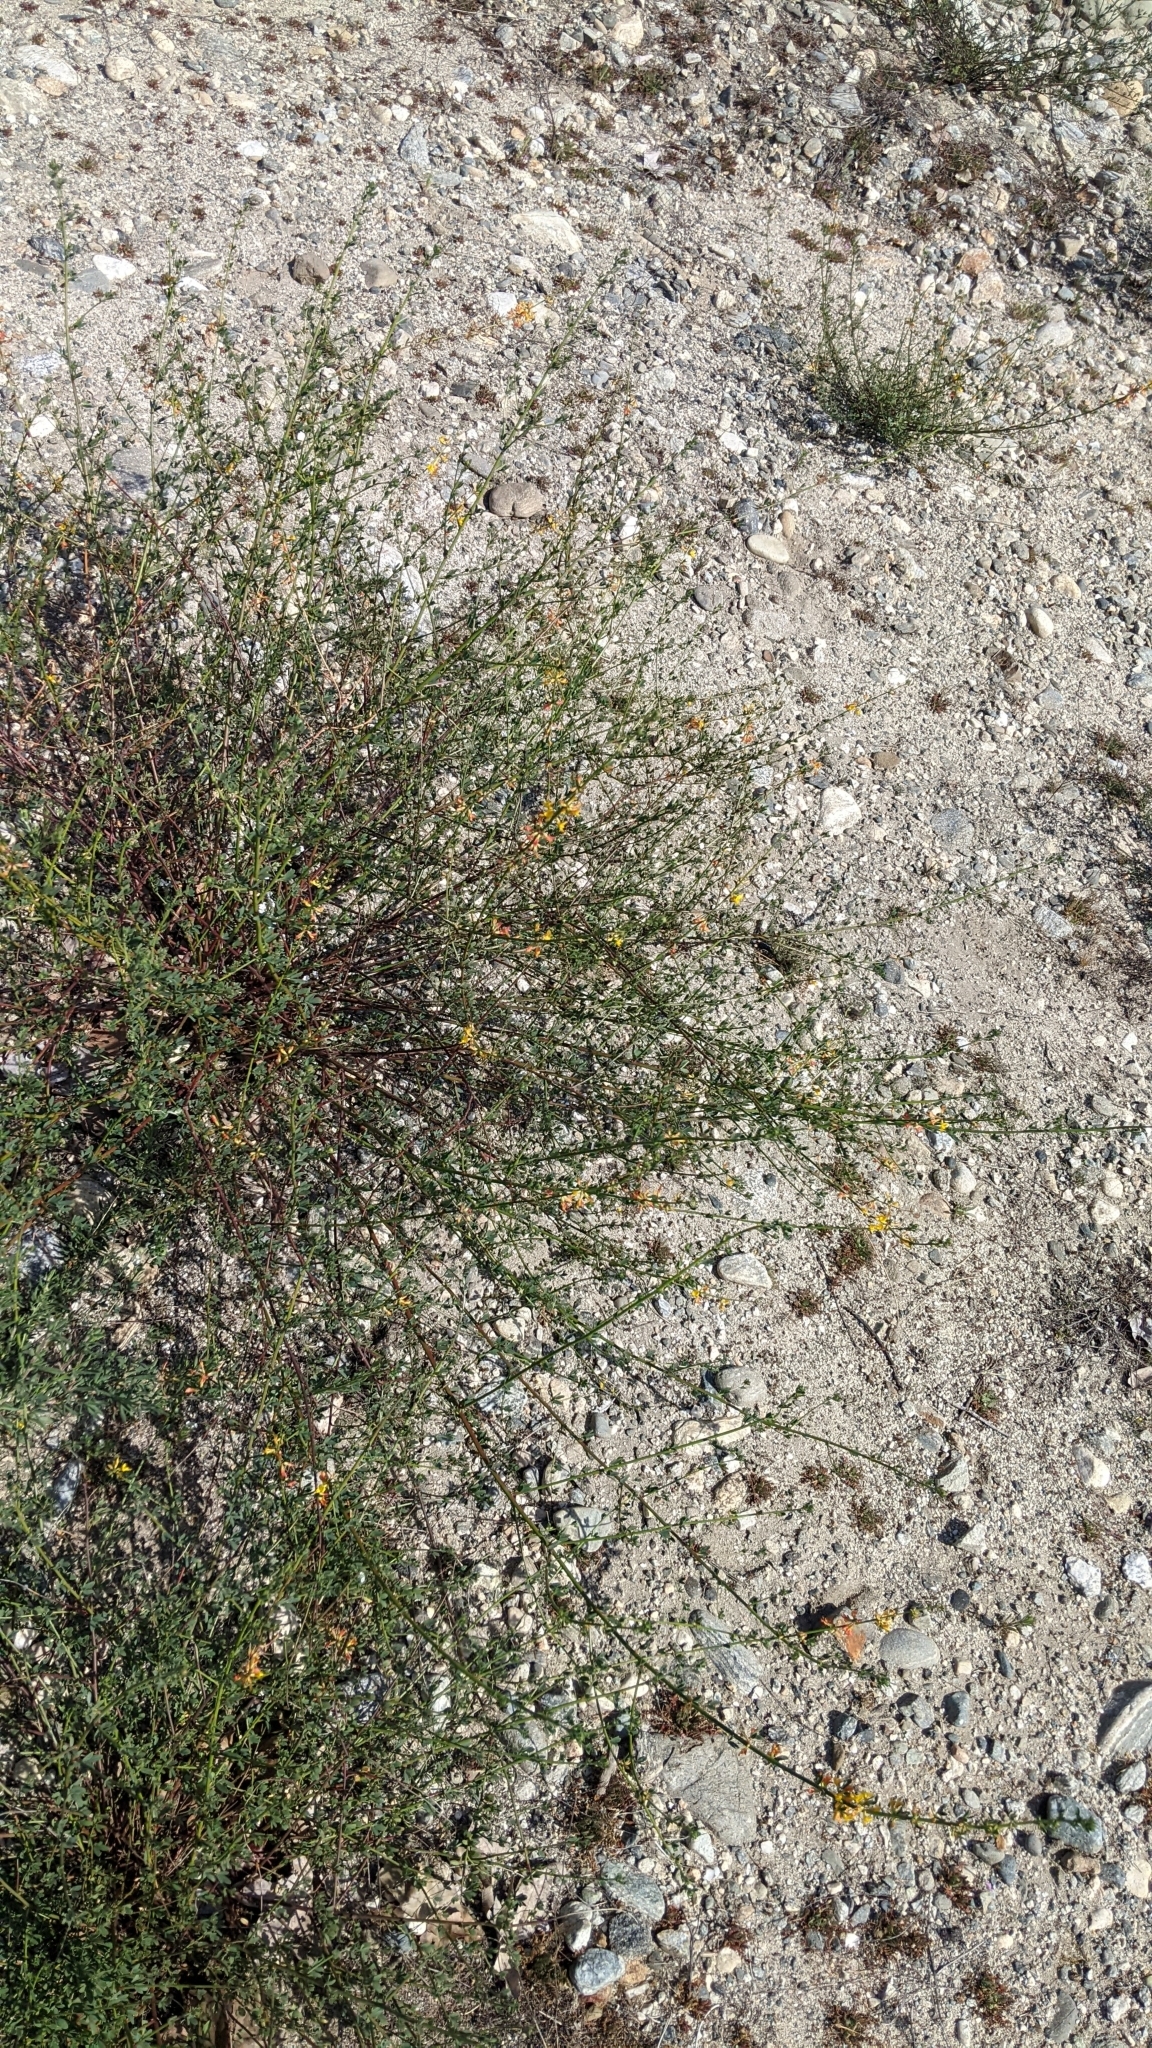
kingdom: Plantae
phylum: Tracheophyta
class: Magnoliopsida
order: Fabales
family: Fabaceae
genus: Acmispon
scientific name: Acmispon glaber
